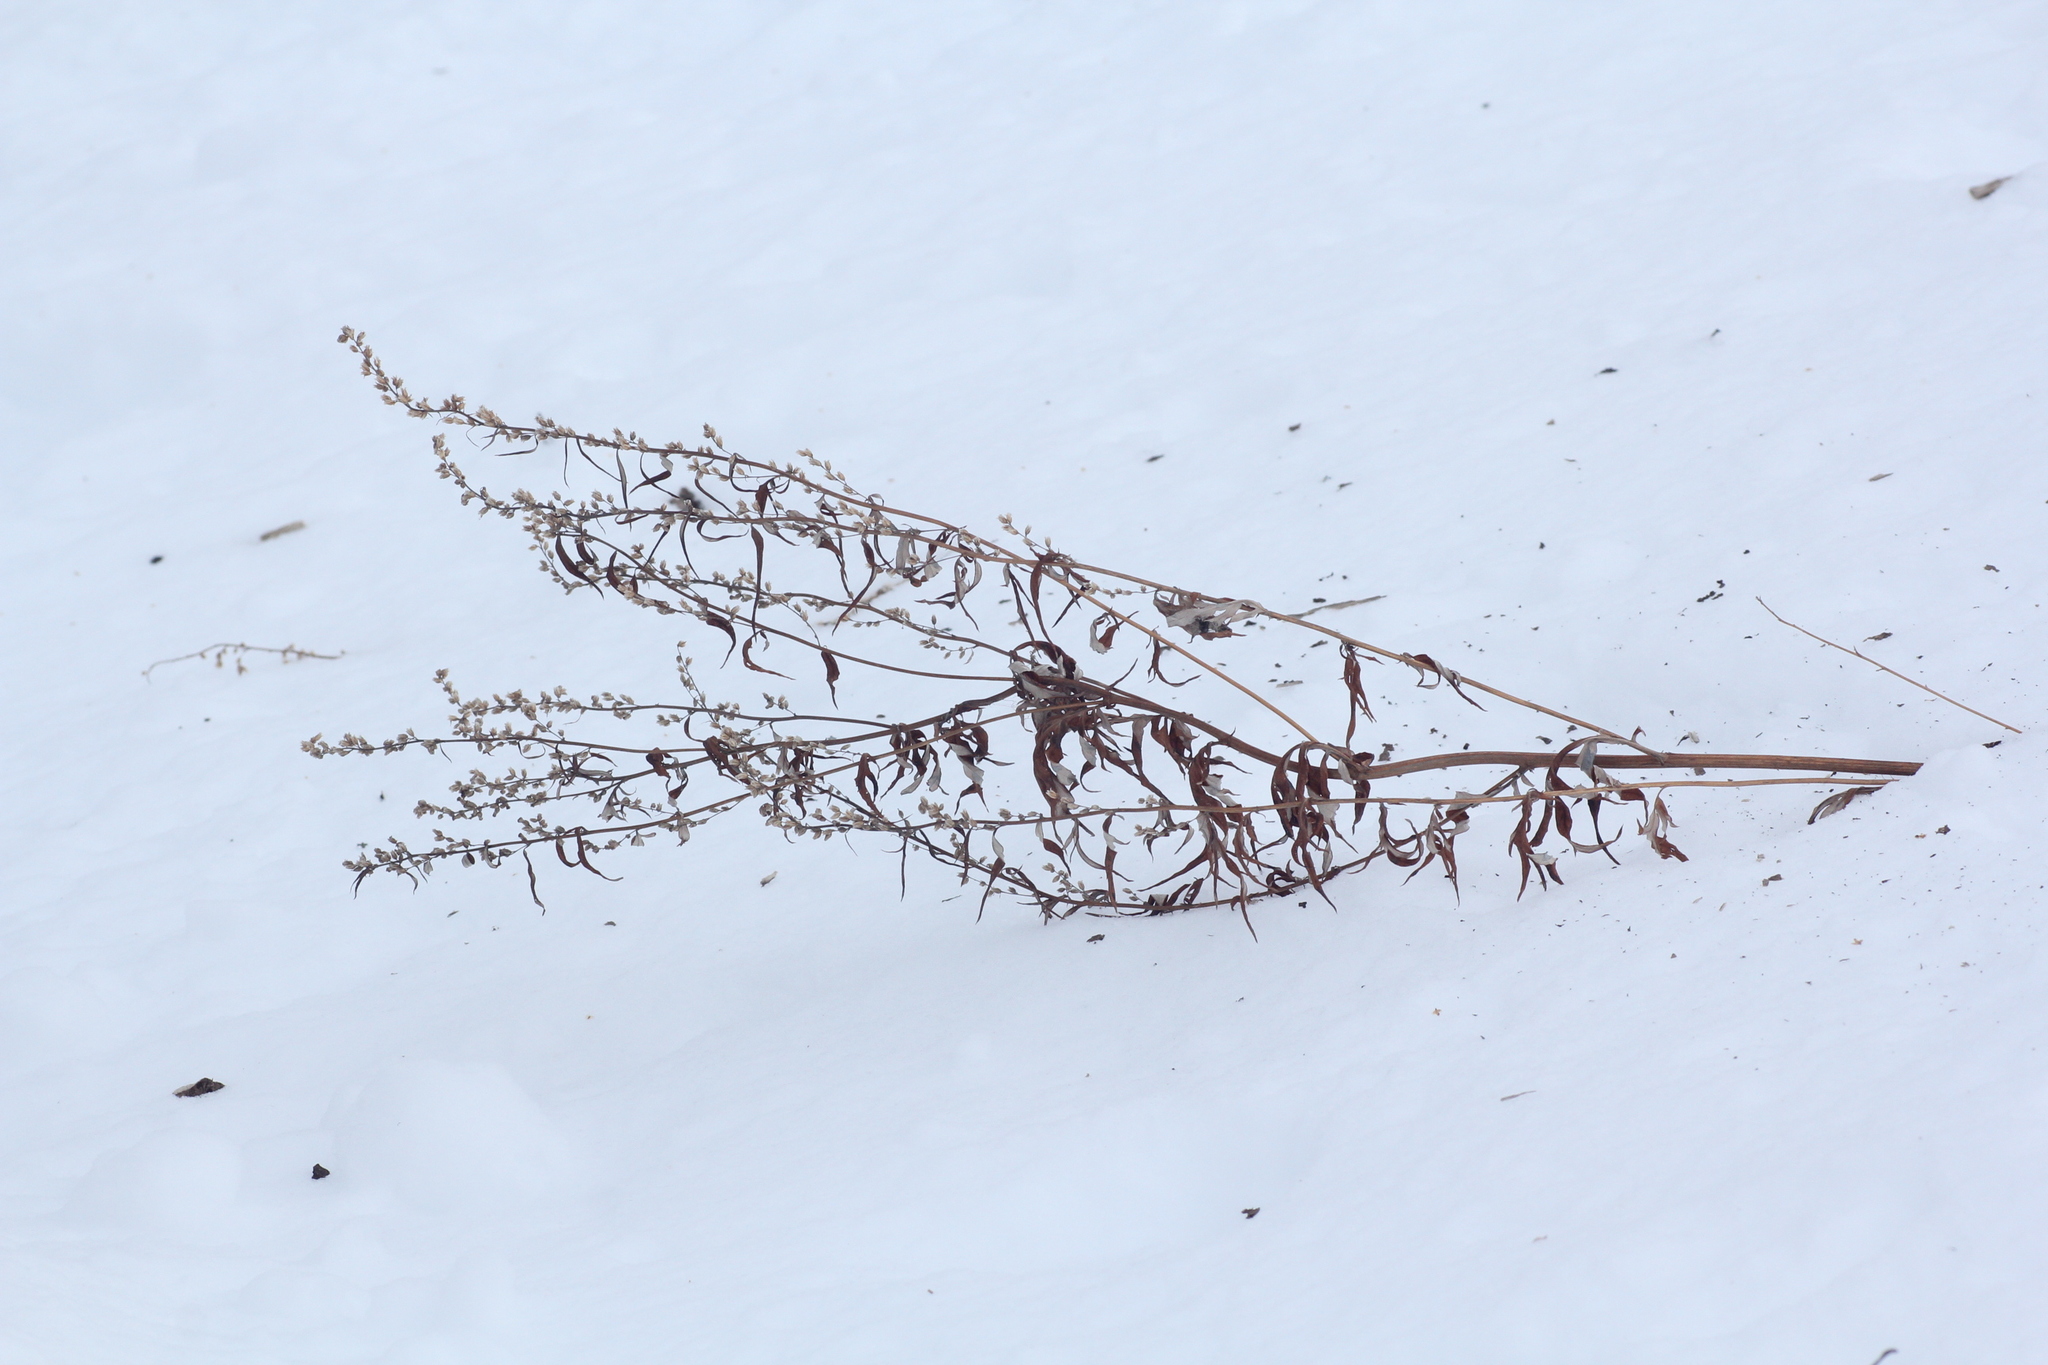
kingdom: Plantae
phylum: Tracheophyta
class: Magnoliopsida
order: Asterales
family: Asteraceae
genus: Artemisia
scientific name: Artemisia vulgaris
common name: Mugwort
